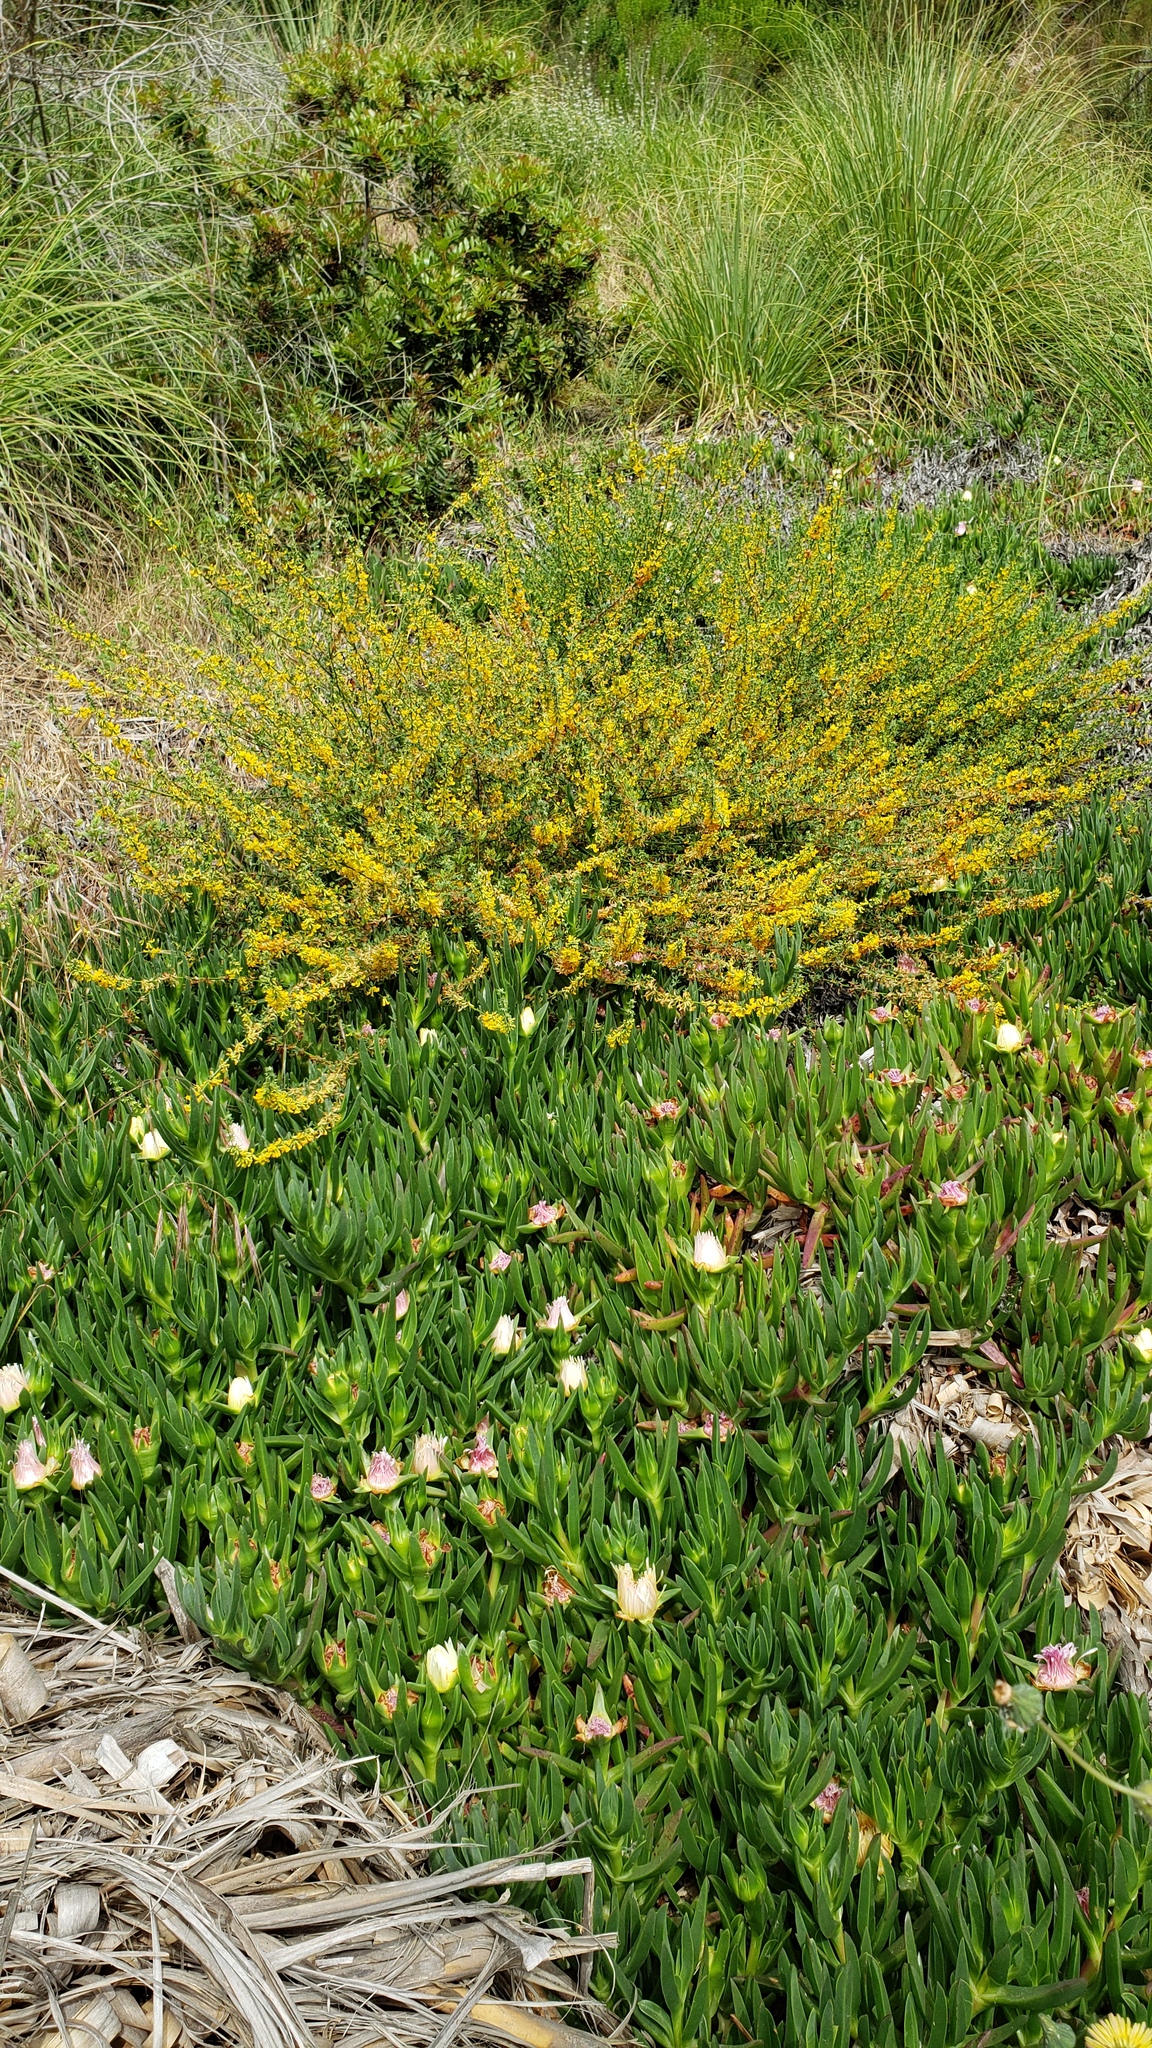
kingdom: Plantae
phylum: Tracheophyta
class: Magnoliopsida
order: Fabales
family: Fabaceae
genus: Acmispon
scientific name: Acmispon glaber
